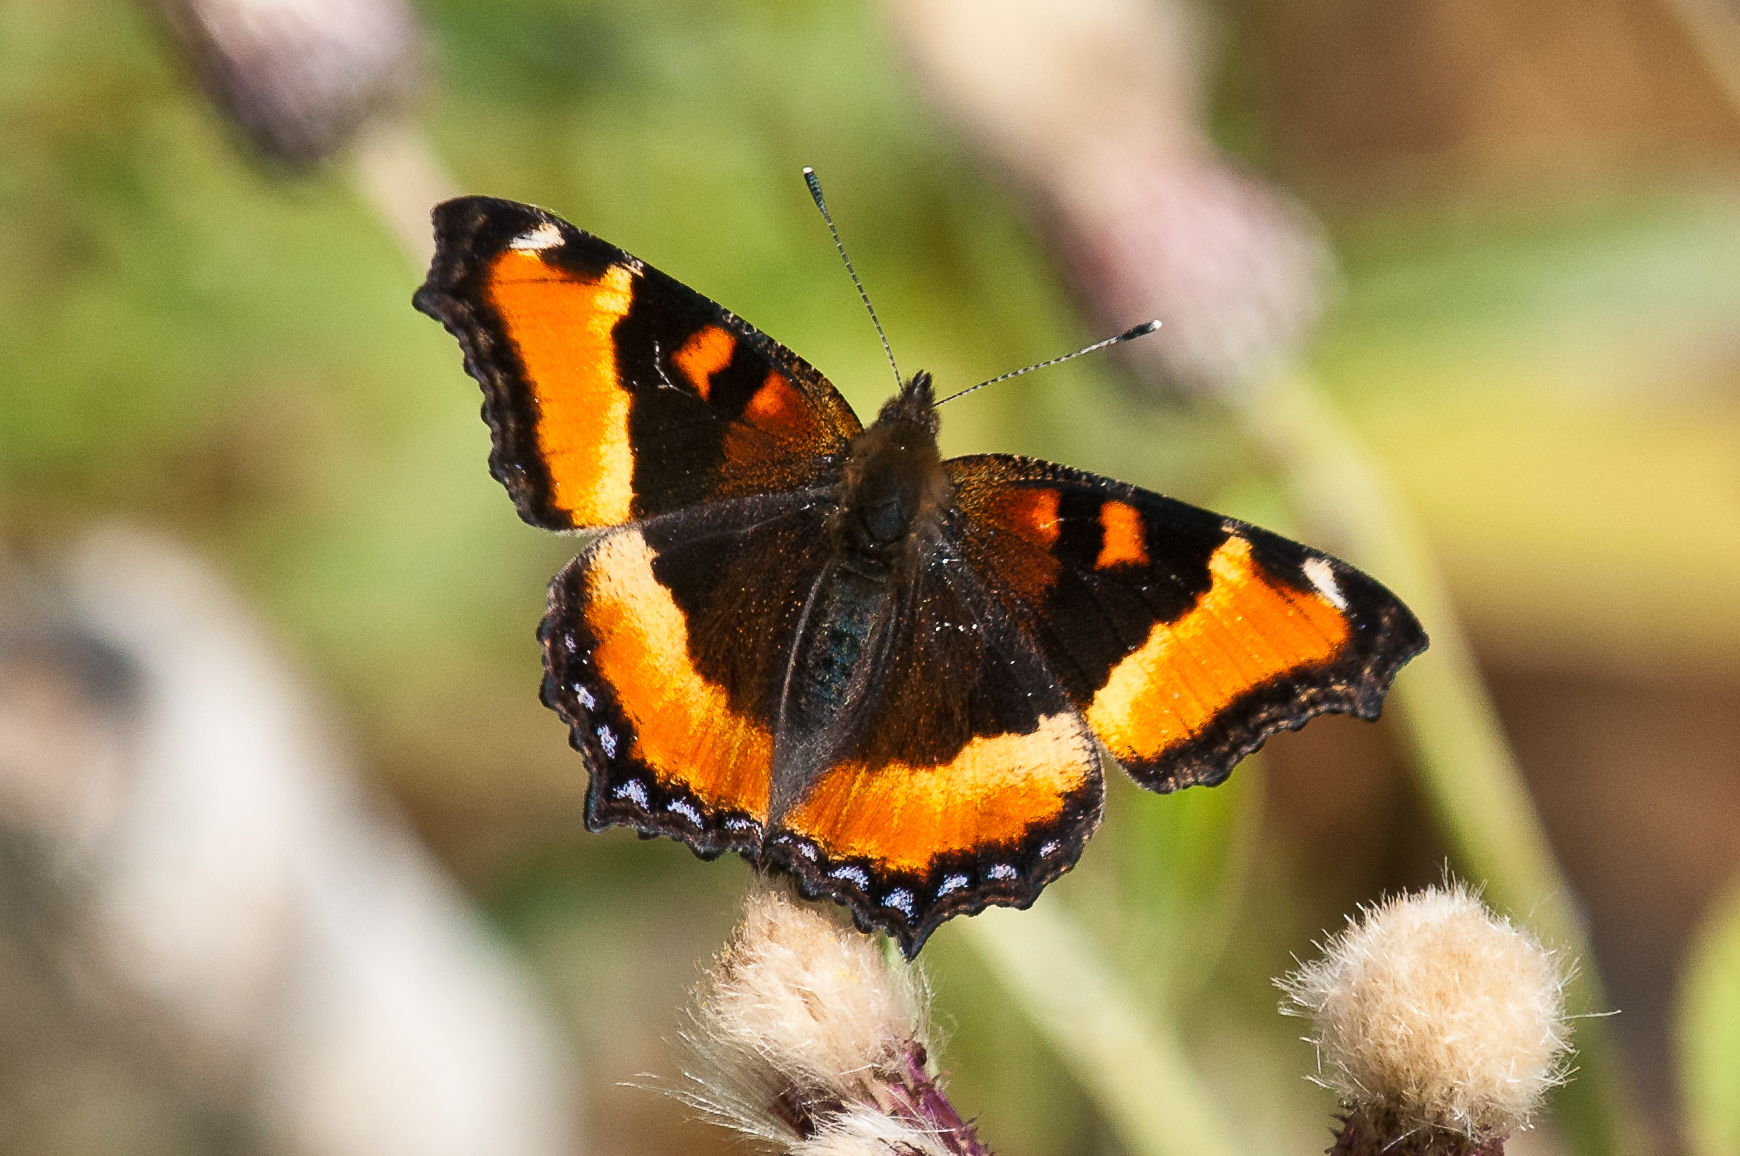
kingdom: Animalia
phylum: Arthropoda
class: Insecta
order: Lepidoptera
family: Nymphalidae
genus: Aglais
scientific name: Aglais milberti
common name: Milbert's tortoiseshell
